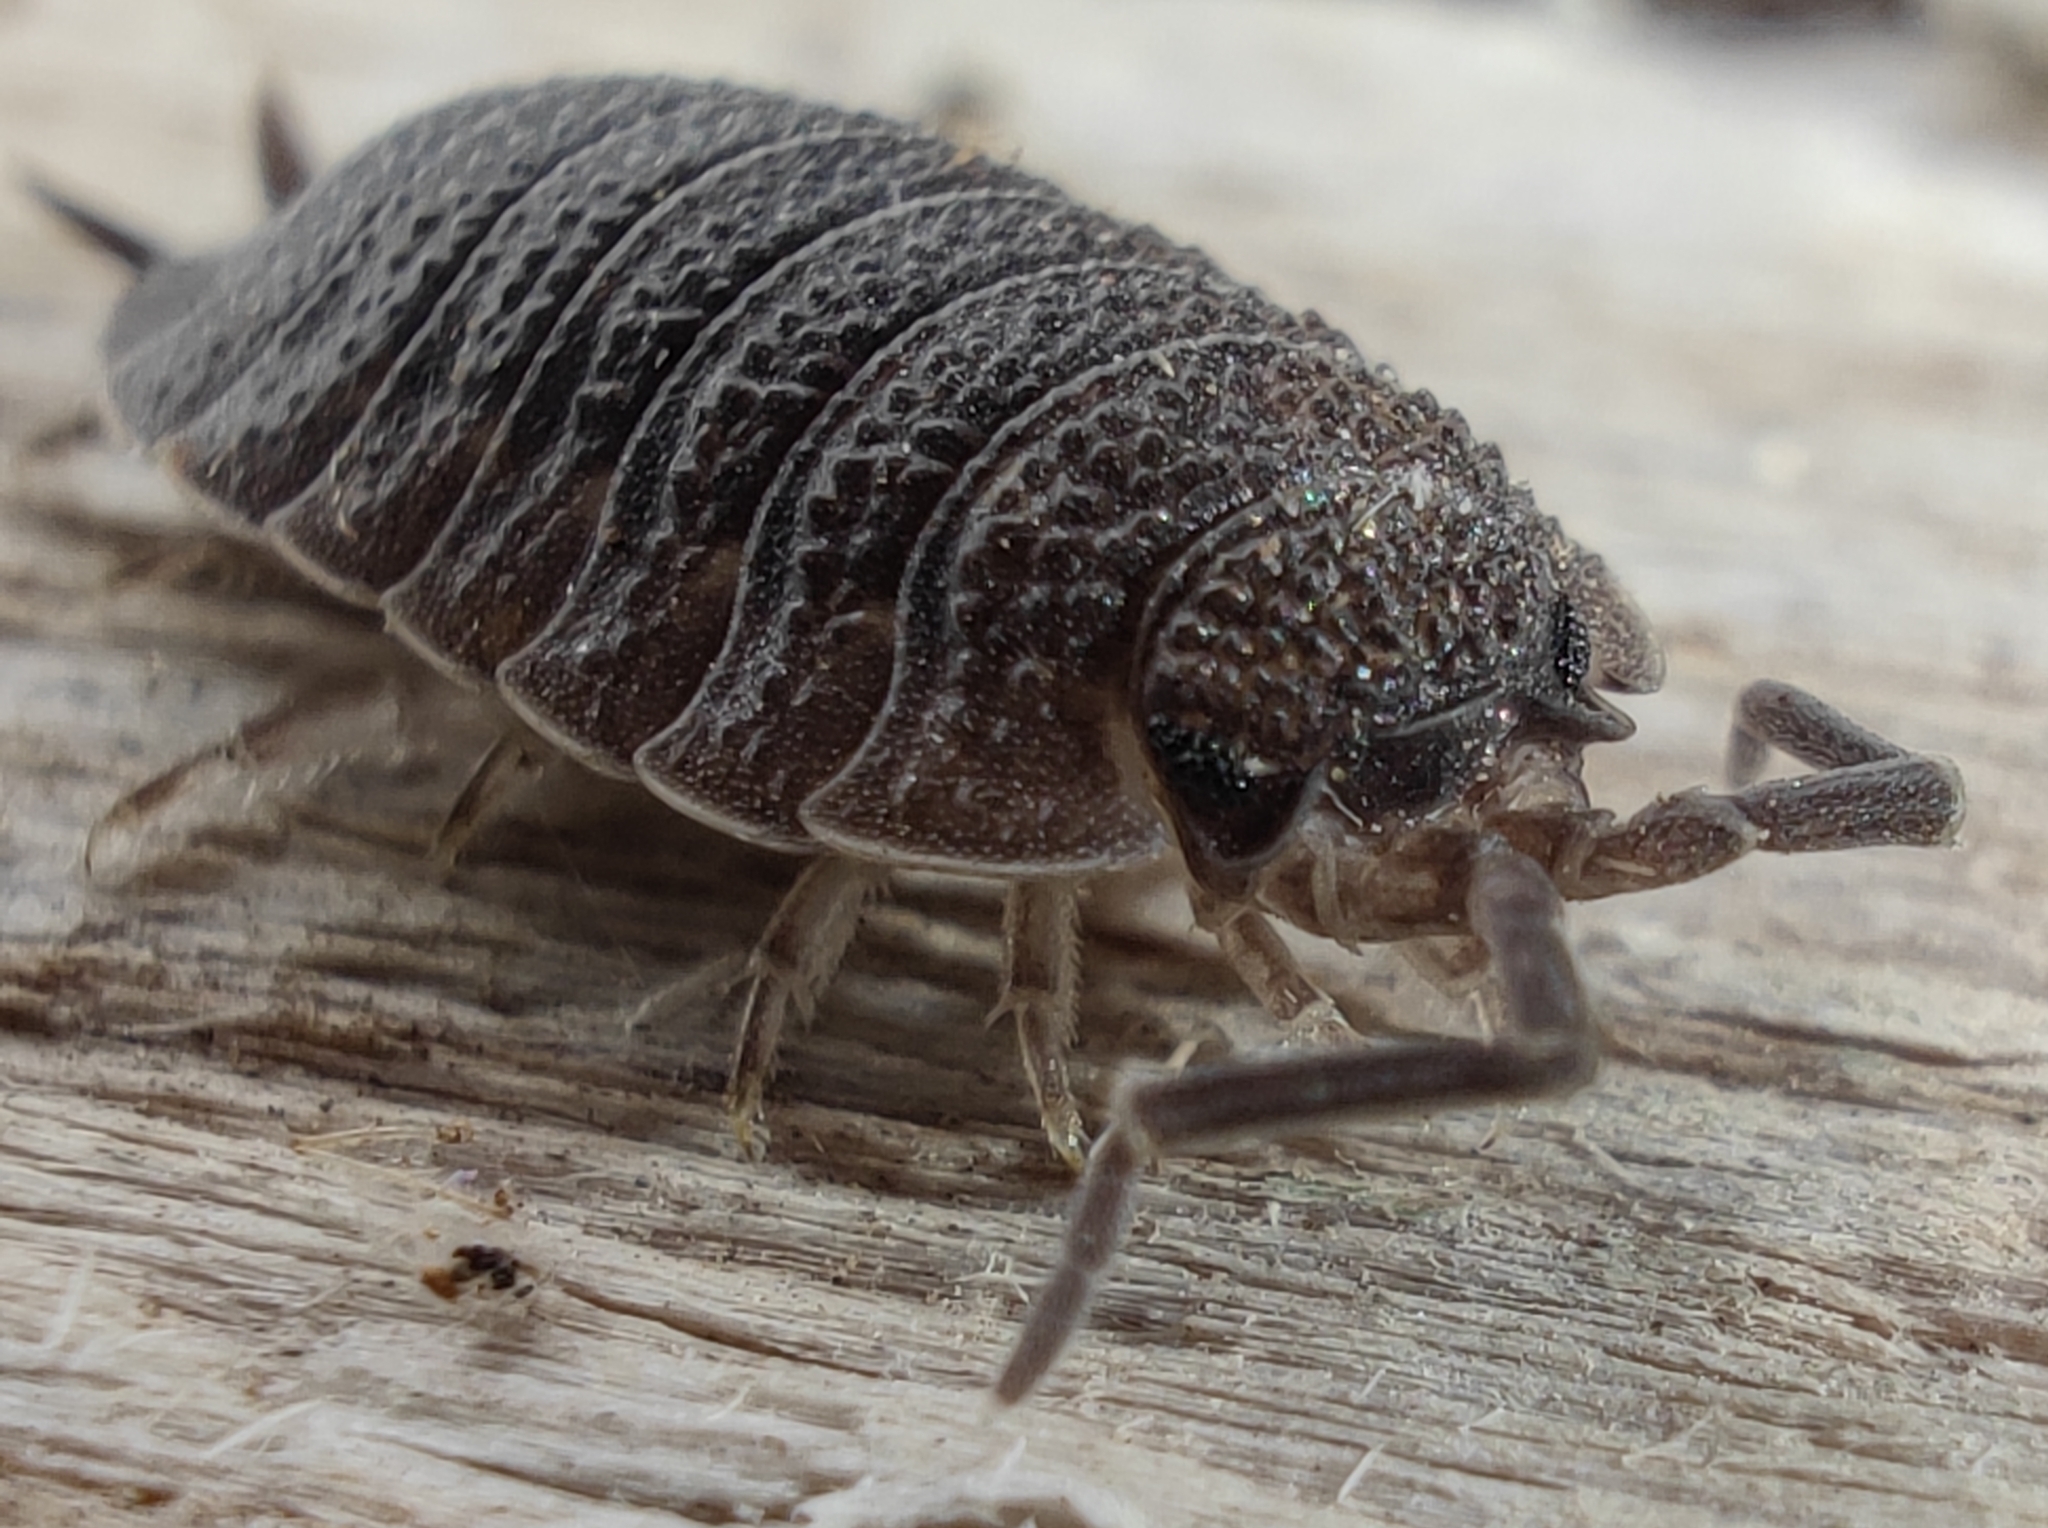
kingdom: Animalia
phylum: Arthropoda
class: Malacostraca
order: Isopoda
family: Porcellionidae
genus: Porcellio
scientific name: Porcellio scaber
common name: Common rough woodlouse
